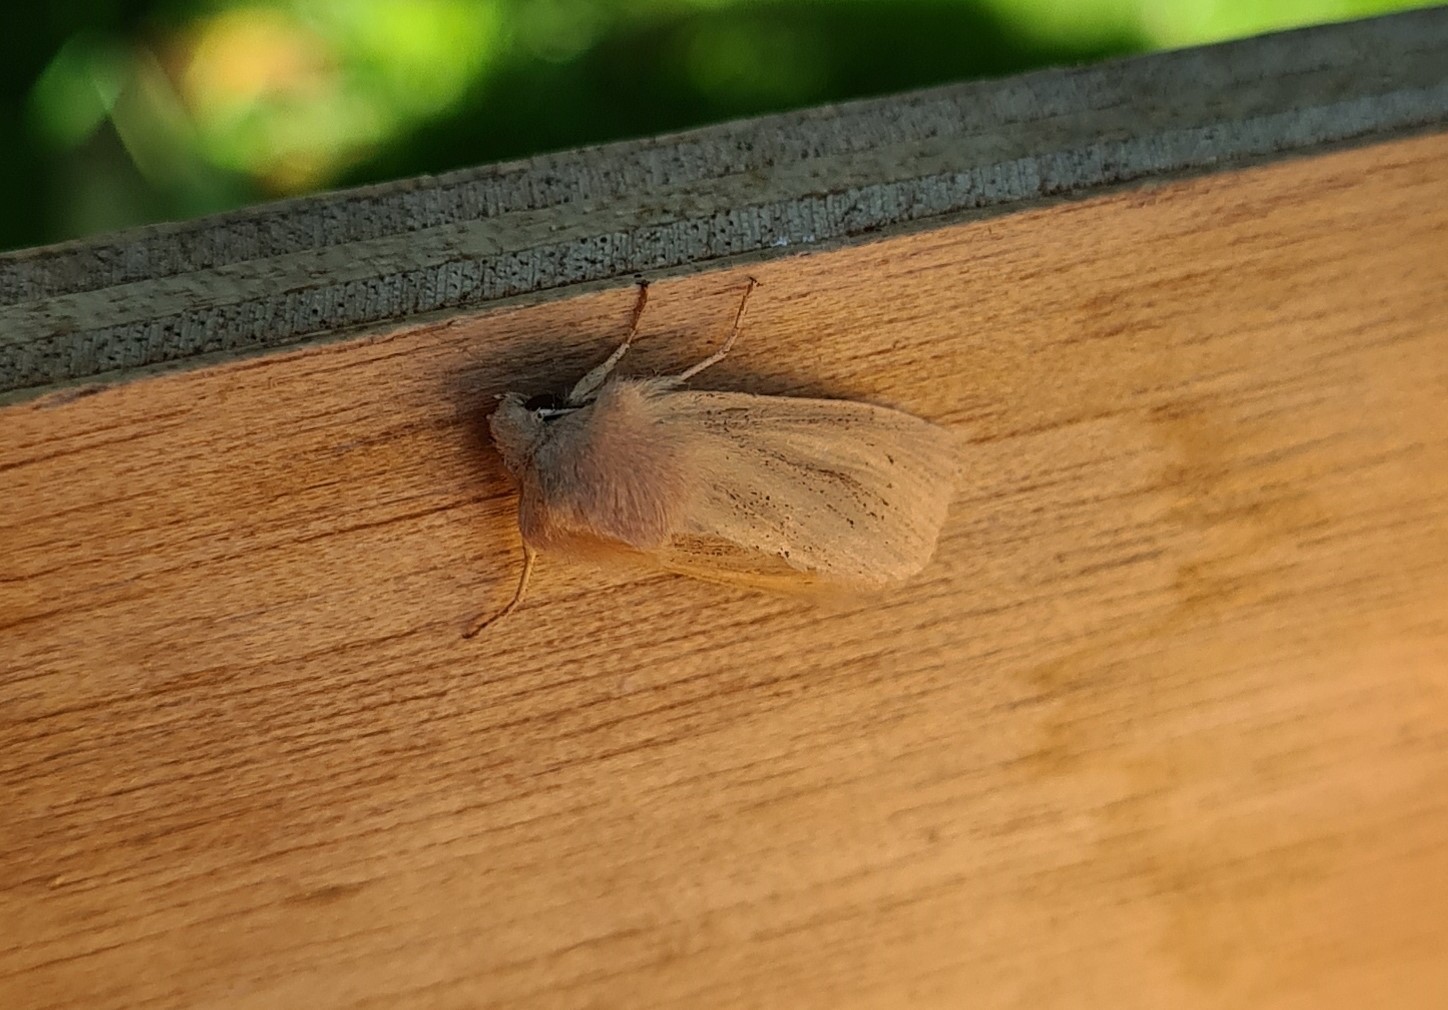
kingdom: Animalia
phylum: Arthropoda
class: Insecta
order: Lepidoptera
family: Noctuidae
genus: Rhizedra
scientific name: Rhizedra lutosa
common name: Large wainscot
